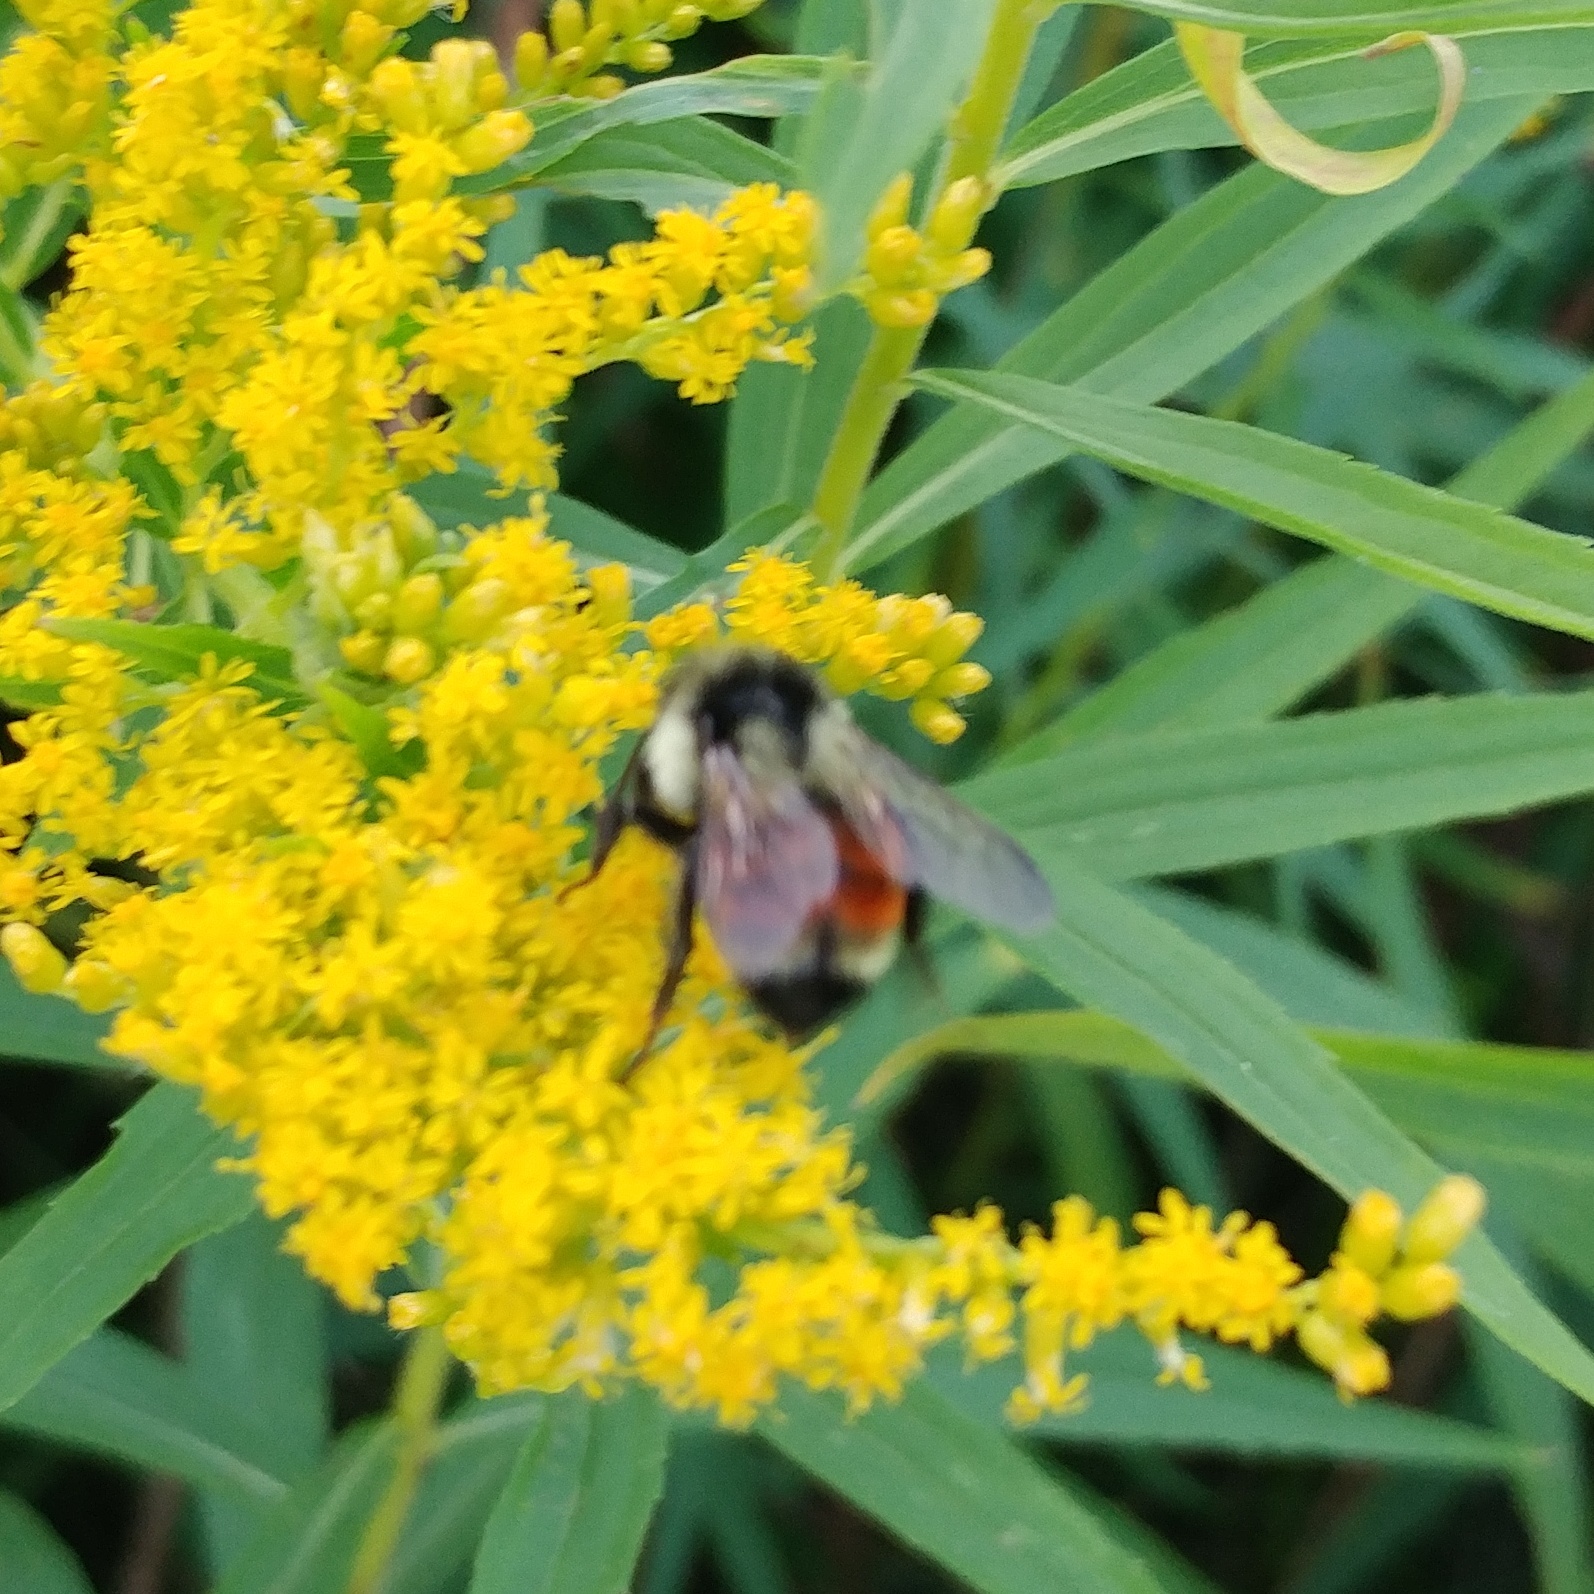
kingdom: Animalia
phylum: Arthropoda
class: Insecta
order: Hymenoptera
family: Apidae
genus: Bombus
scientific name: Bombus ternarius
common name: Tri-colored bumble bee
